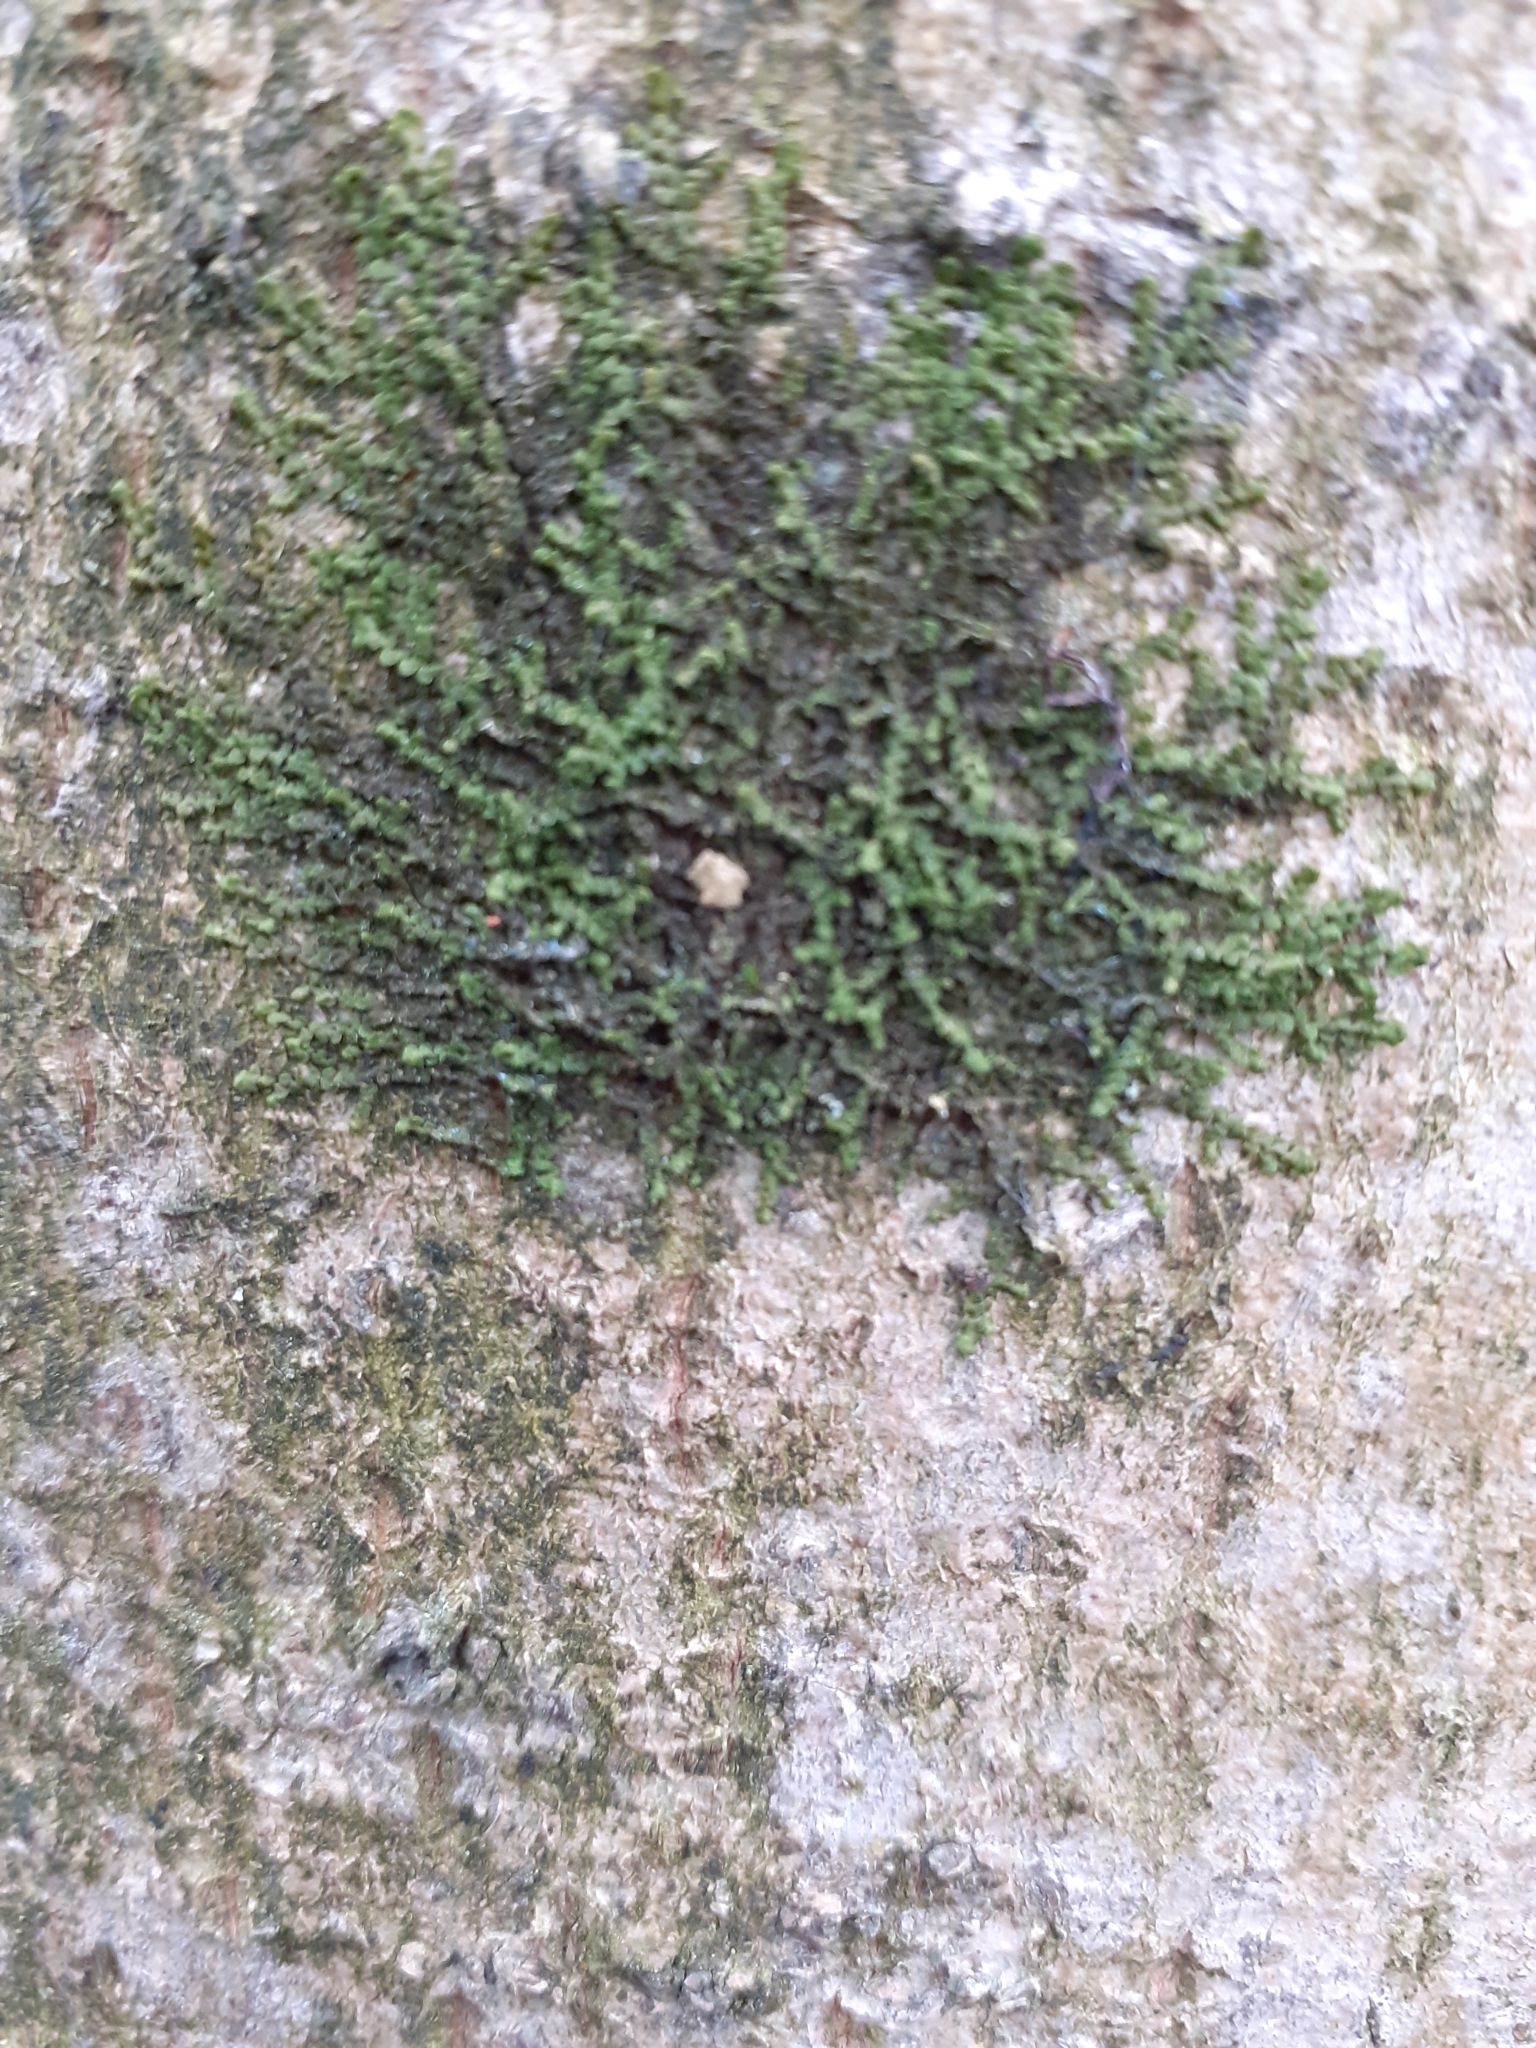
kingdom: Plantae
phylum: Marchantiophyta
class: Jungermanniopsida
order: Porellales
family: Frullaniaceae
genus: Frullania
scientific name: Frullania dilatata
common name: Dilated scalewort
